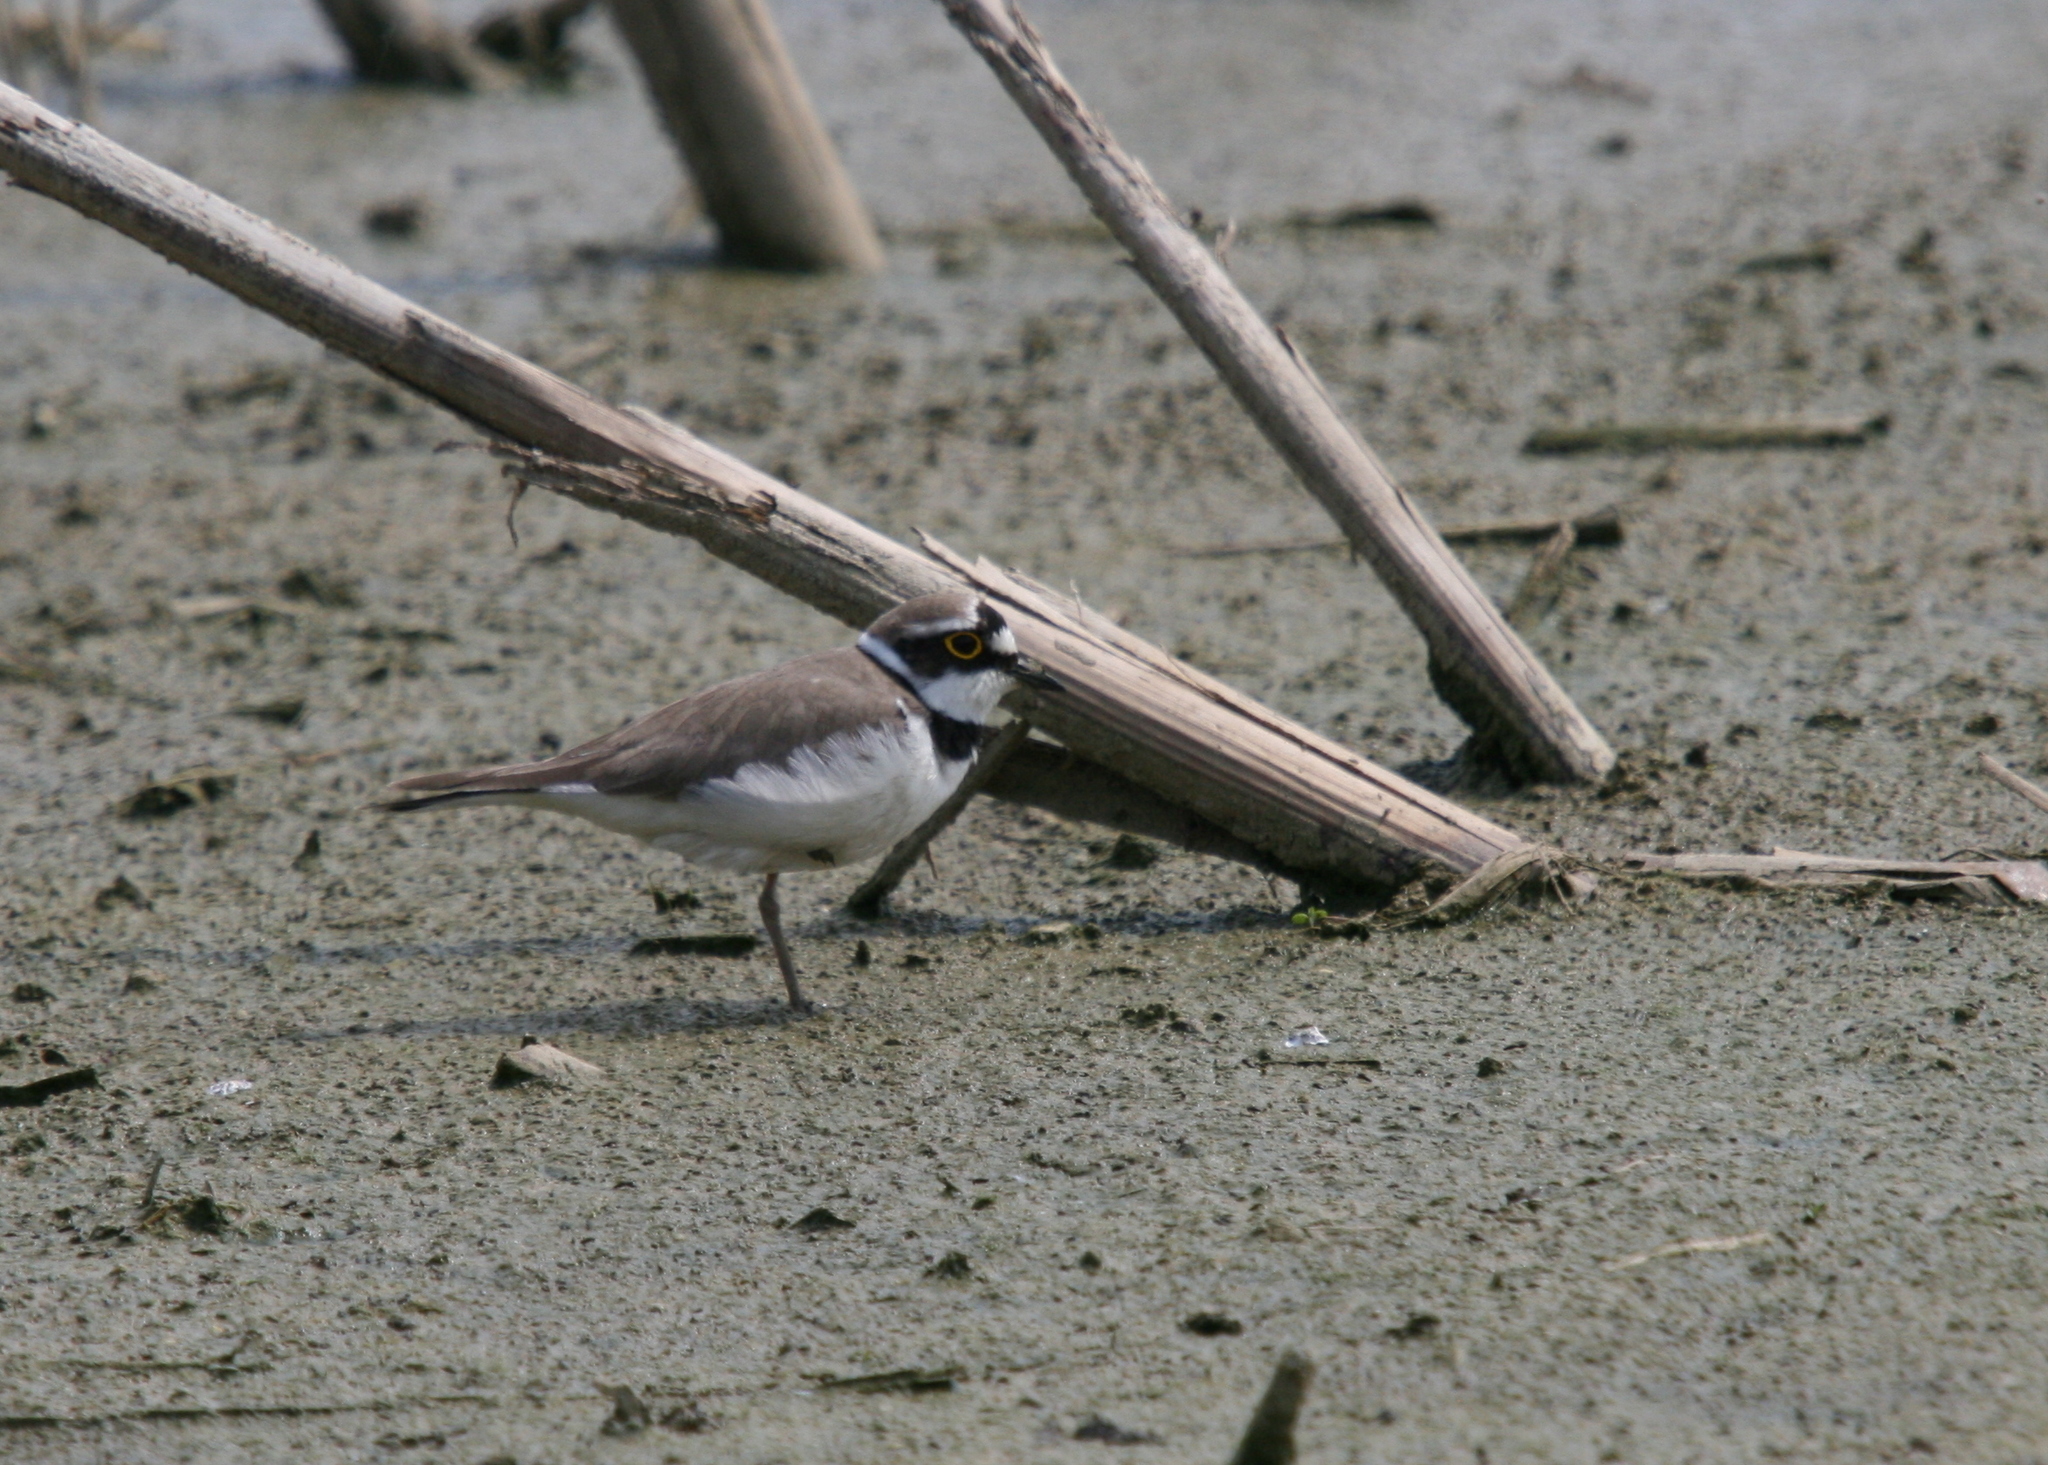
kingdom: Animalia
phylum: Chordata
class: Aves
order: Charadriiformes
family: Charadriidae
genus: Charadrius
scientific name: Charadrius dubius
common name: Little ringed plover
